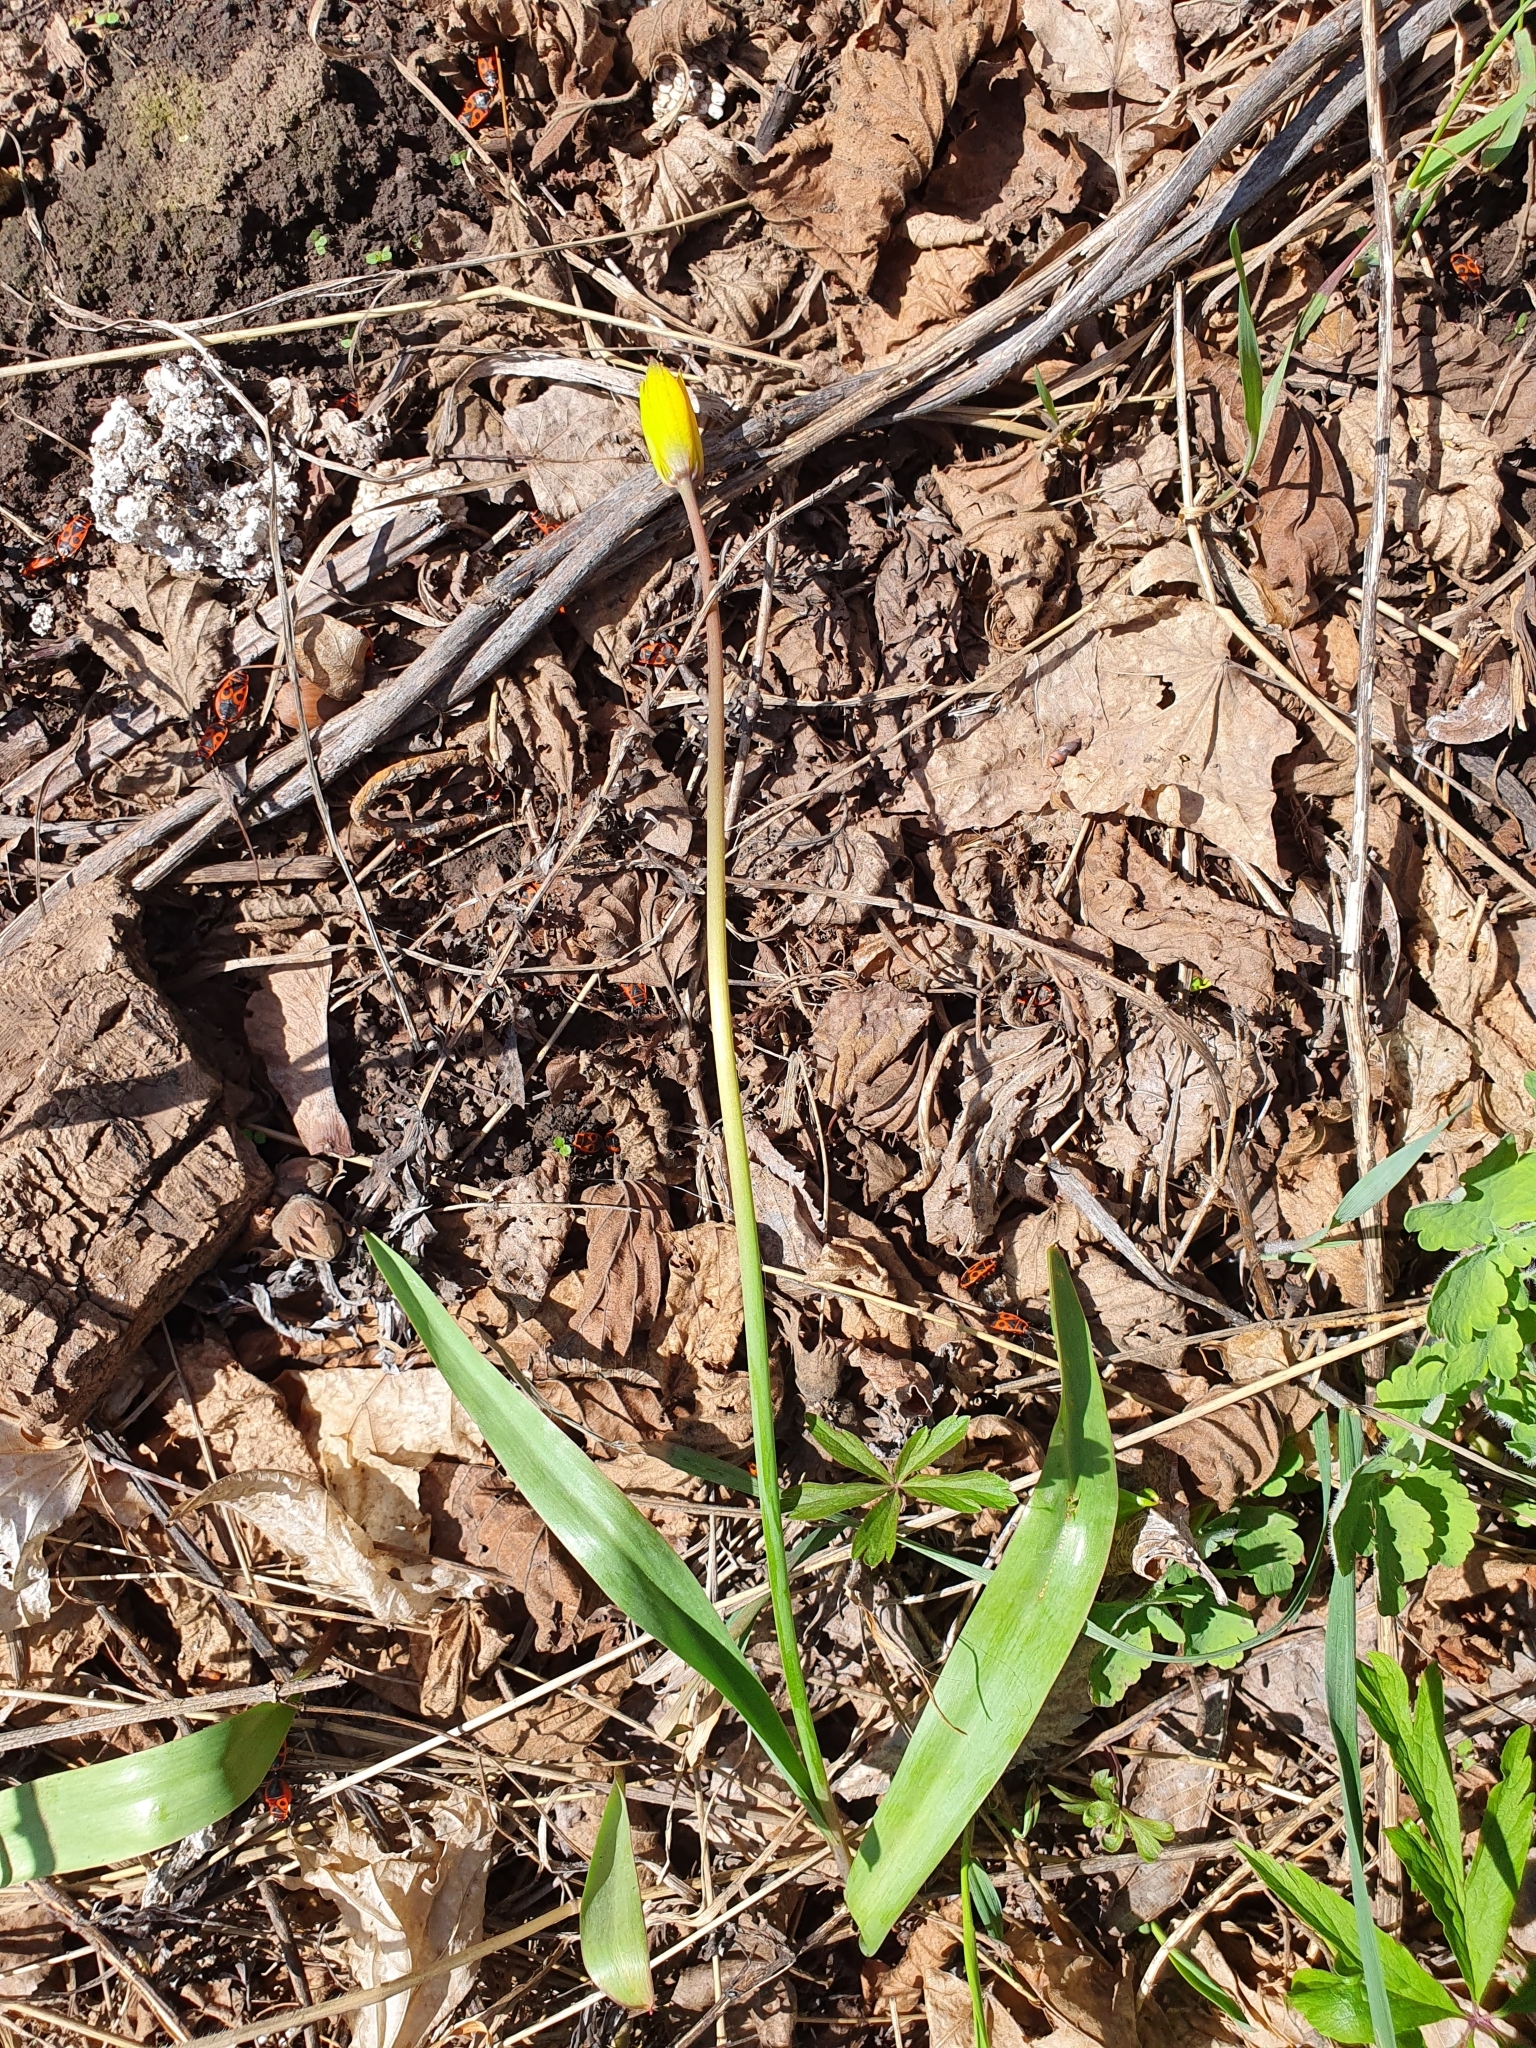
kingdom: Plantae
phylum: Tracheophyta
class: Liliopsida
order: Liliales
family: Liliaceae
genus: Tulipa
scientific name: Tulipa sylvestris
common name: Wild tulip
